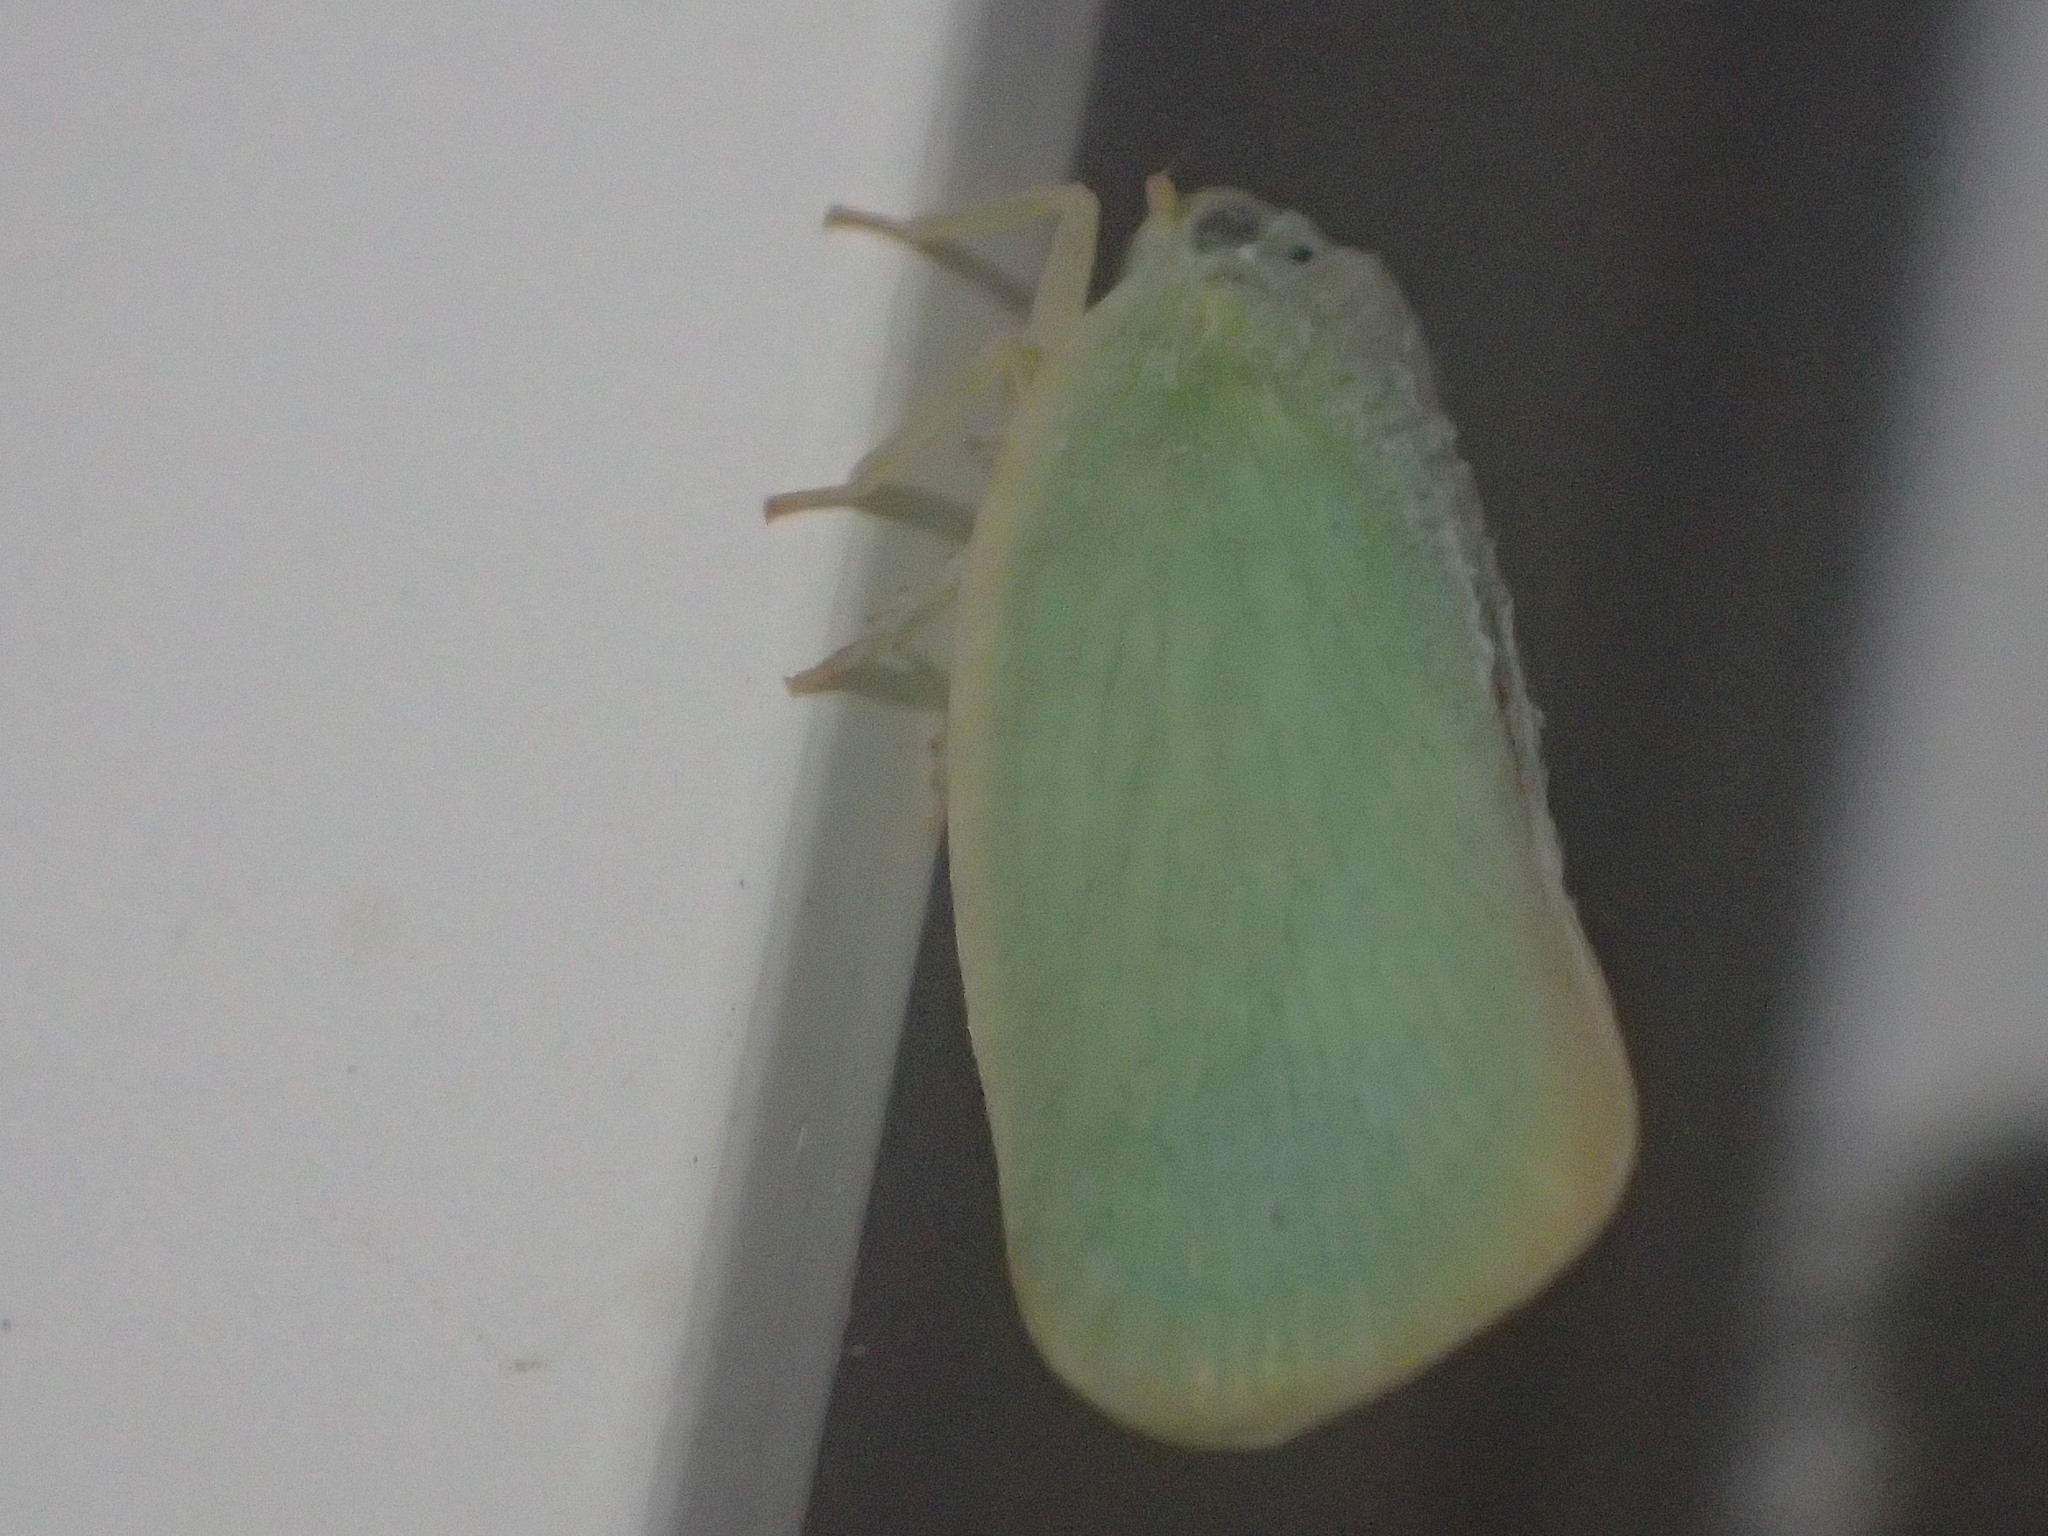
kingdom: Animalia
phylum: Arthropoda
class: Insecta
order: Hemiptera
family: Flatidae
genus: Ormenoides
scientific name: Ormenoides venusta
